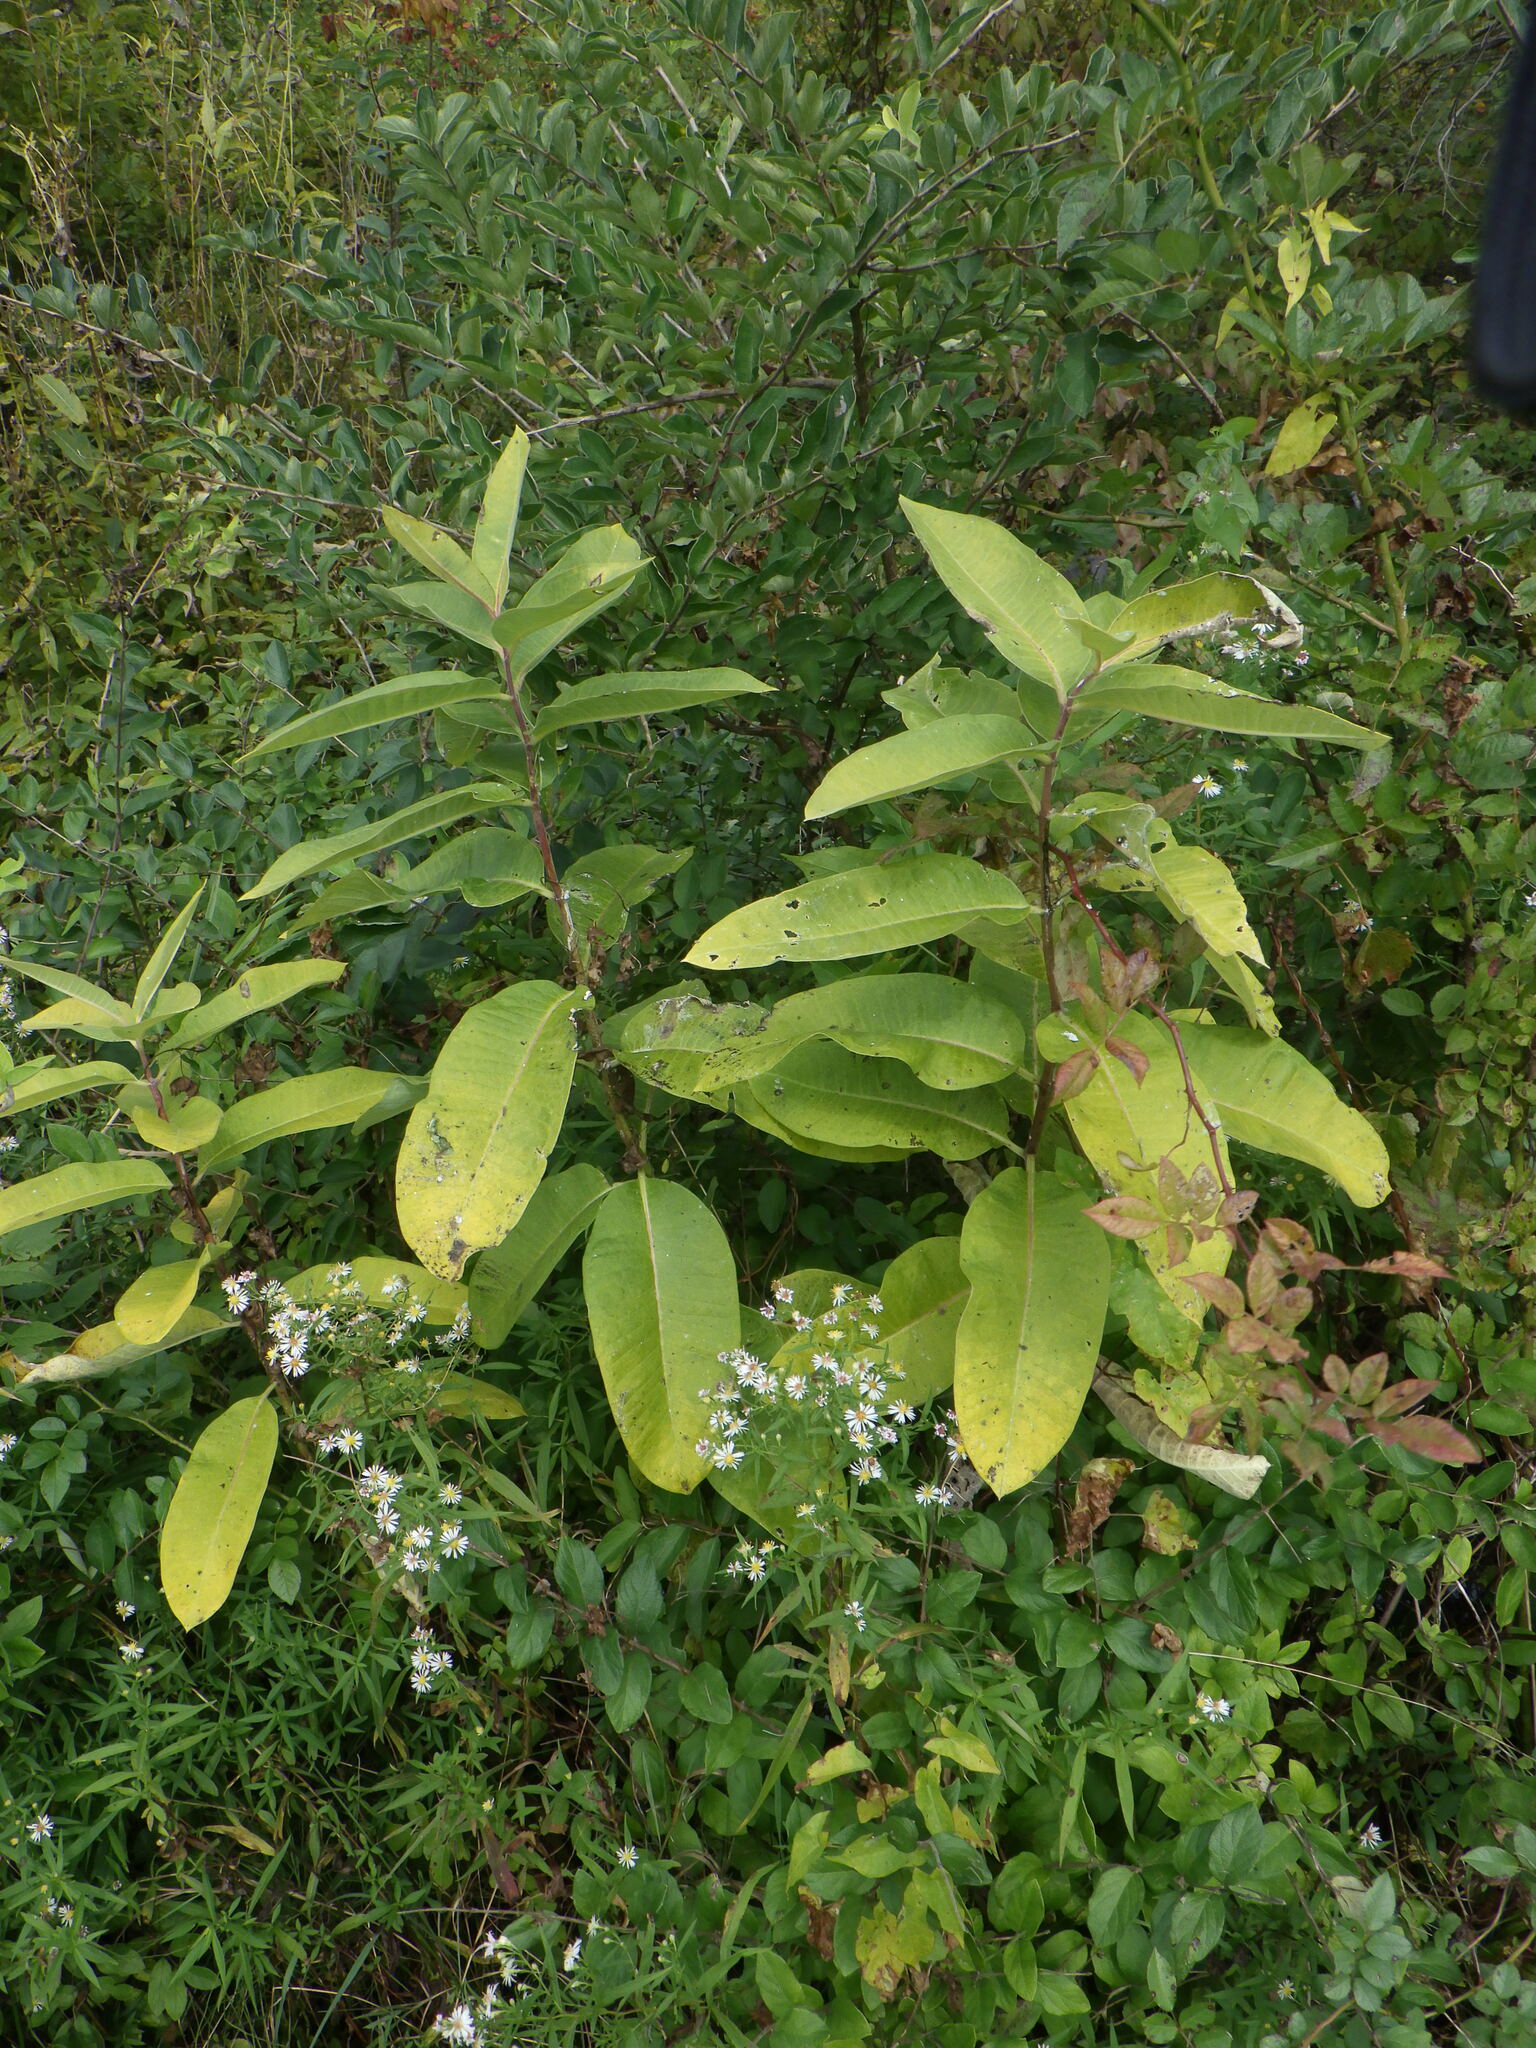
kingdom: Plantae
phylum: Tracheophyta
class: Magnoliopsida
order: Gentianales
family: Apocynaceae
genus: Asclepias
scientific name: Asclepias syriaca
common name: Common milkweed
